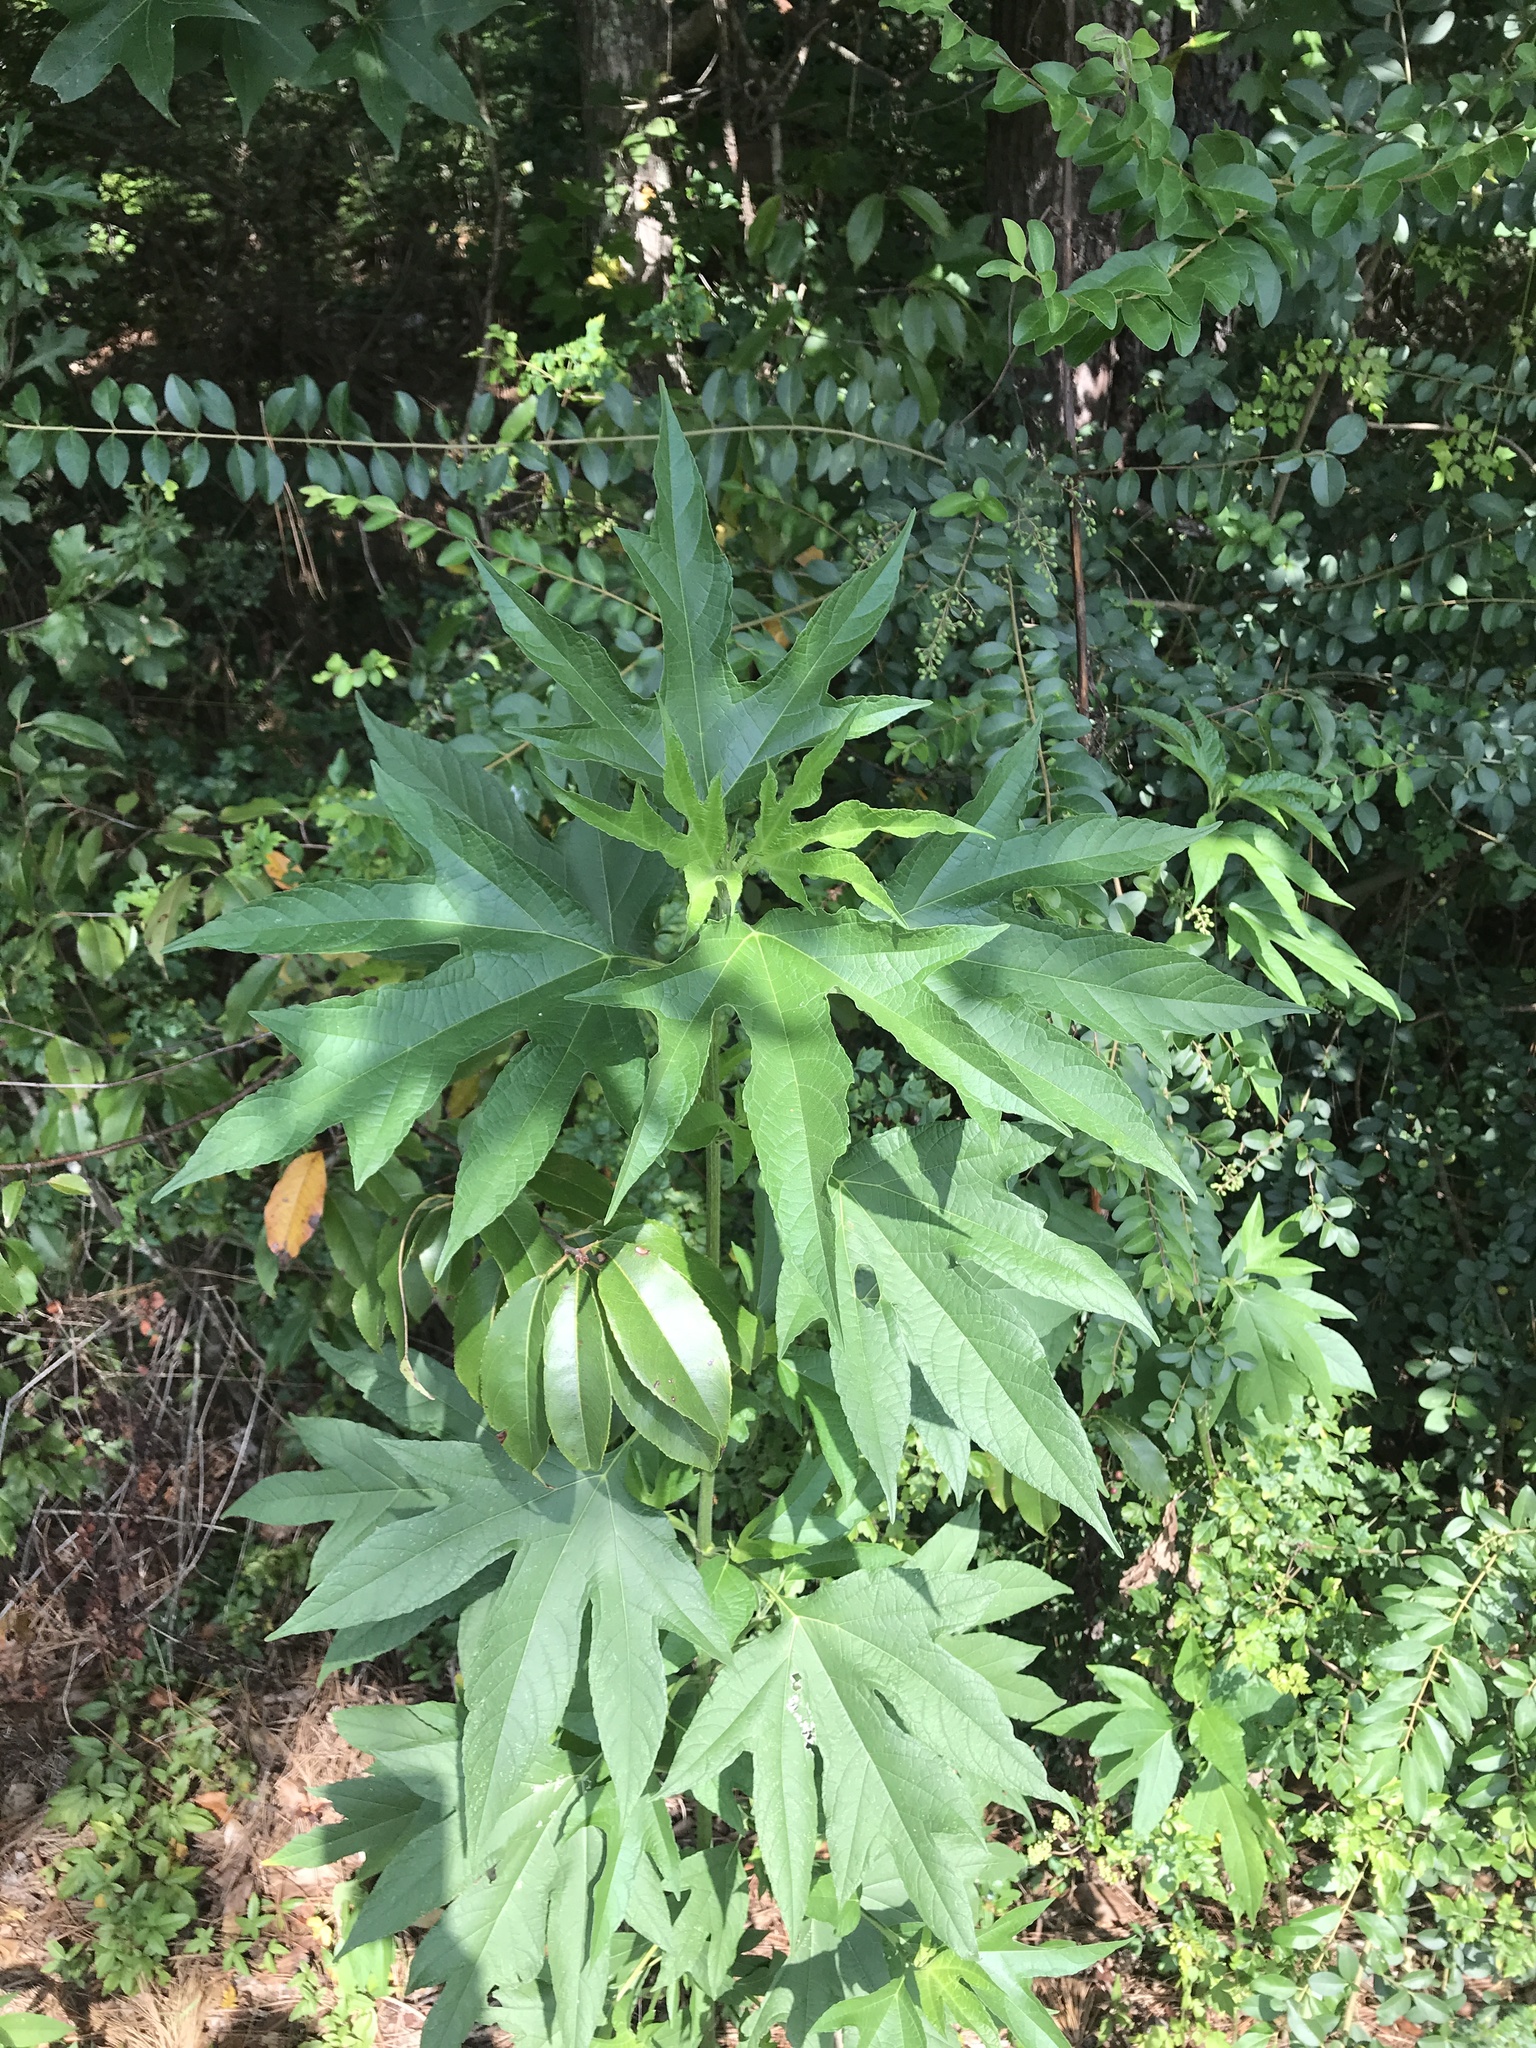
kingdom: Plantae
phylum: Tracheophyta
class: Magnoliopsida
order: Asterales
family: Asteraceae
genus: Ambrosia
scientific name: Ambrosia trifida
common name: Giant ragweed
